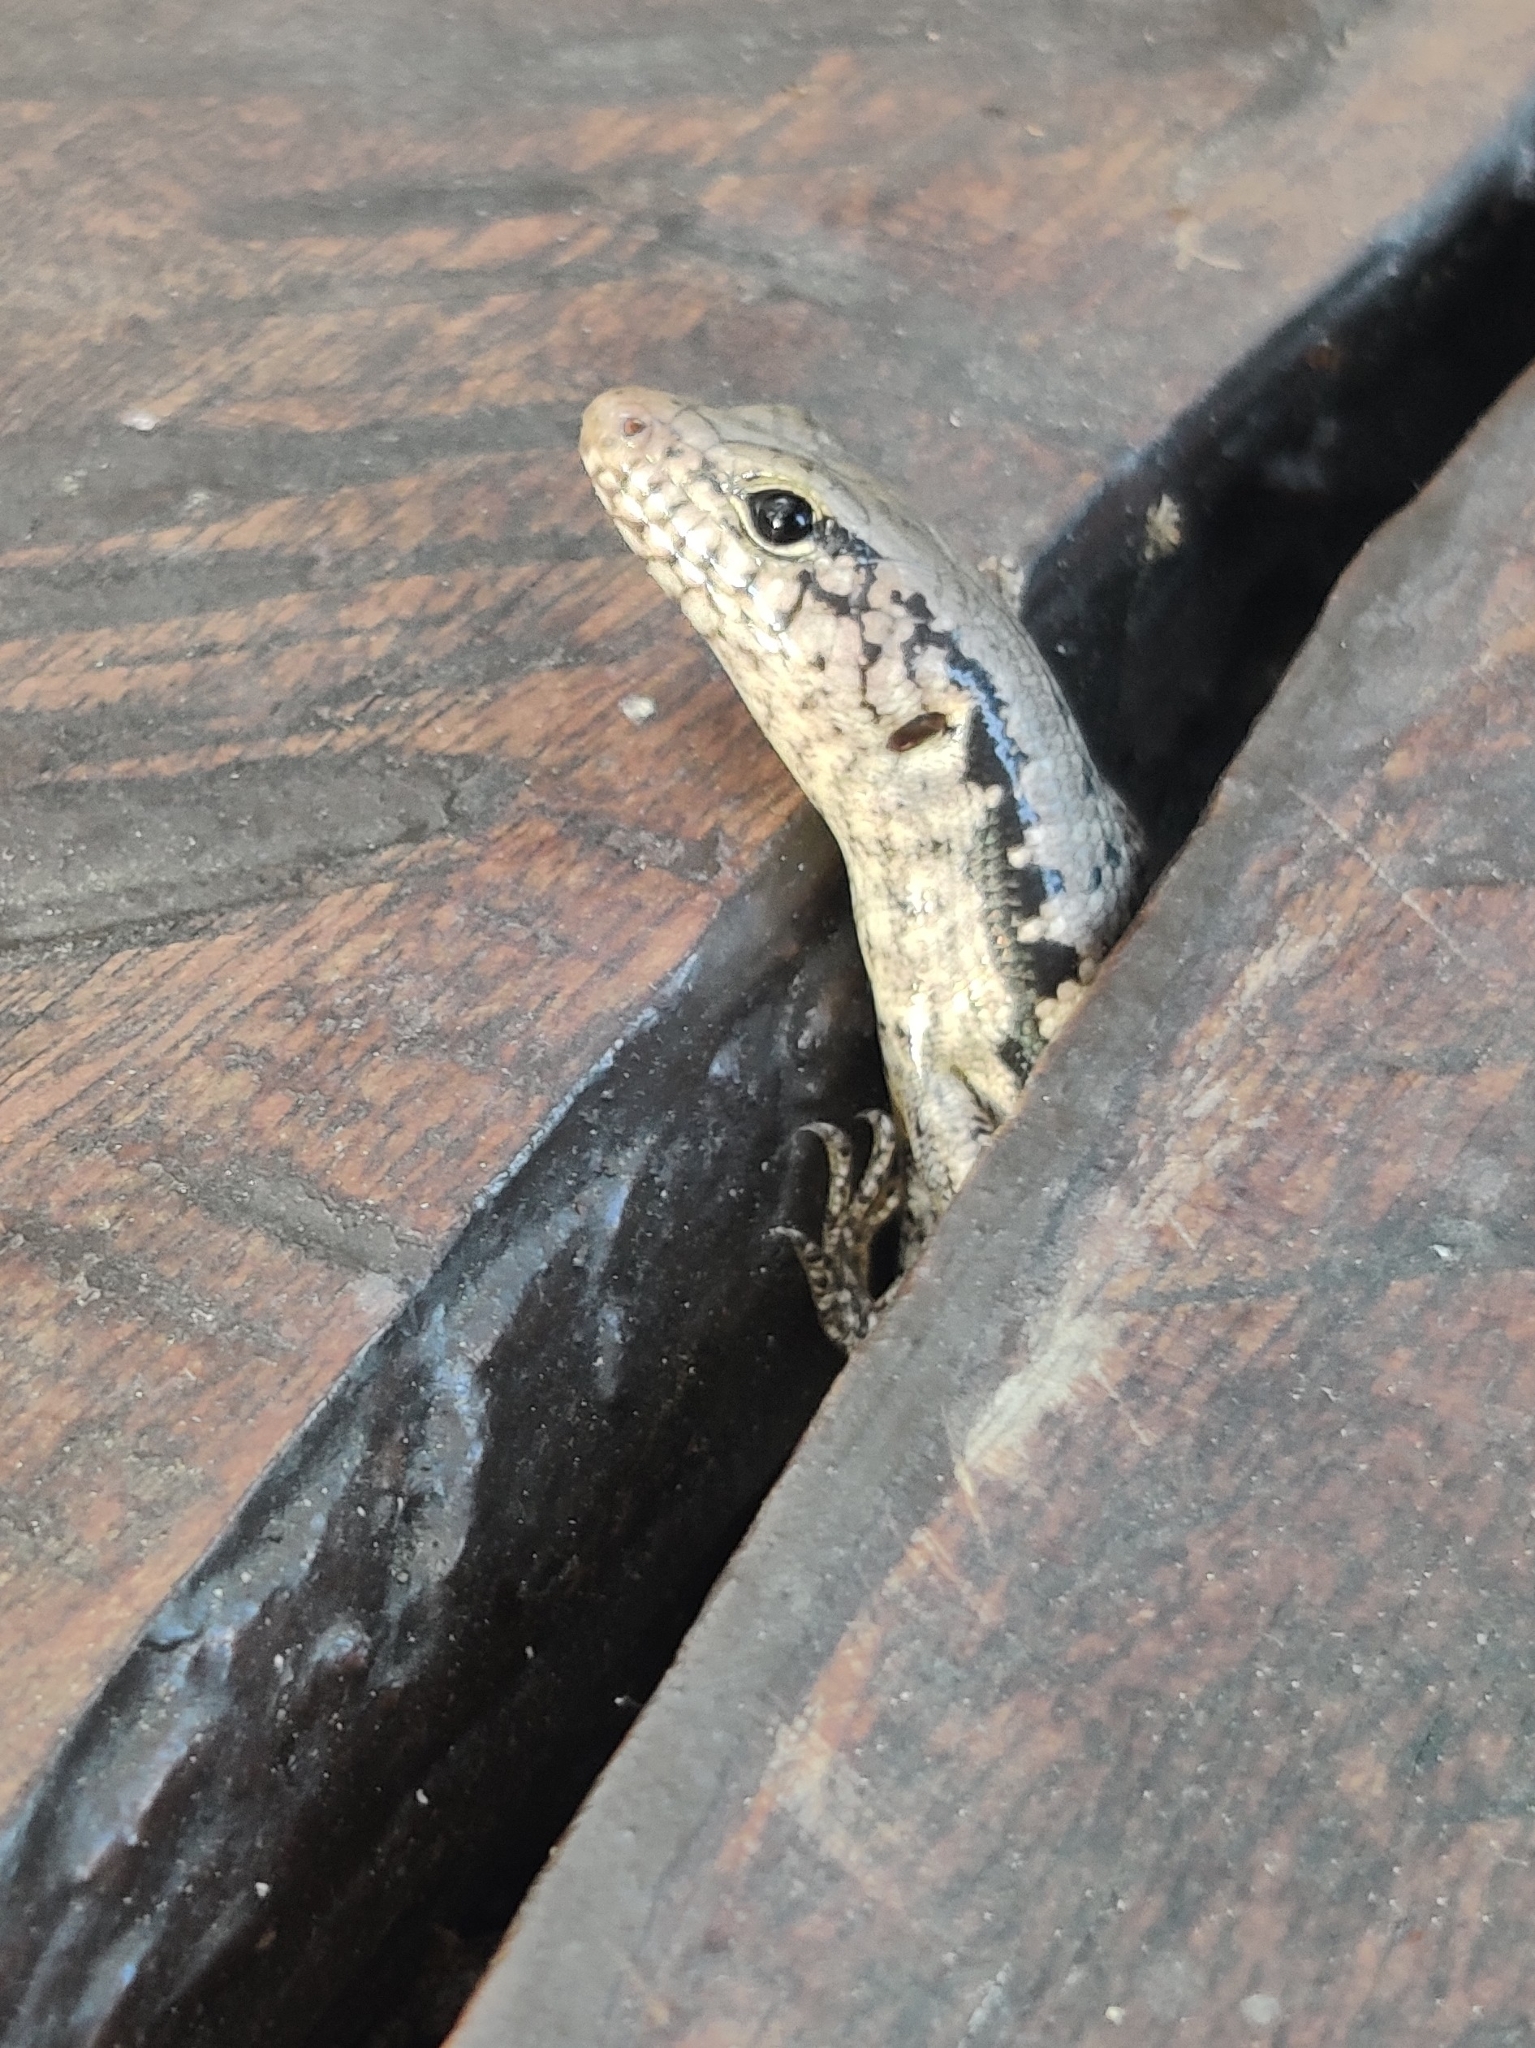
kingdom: Animalia
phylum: Chordata
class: Squamata
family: Scincidae
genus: Concinnia
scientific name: Concinnia tenuis
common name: Bar-sided forest-skink
